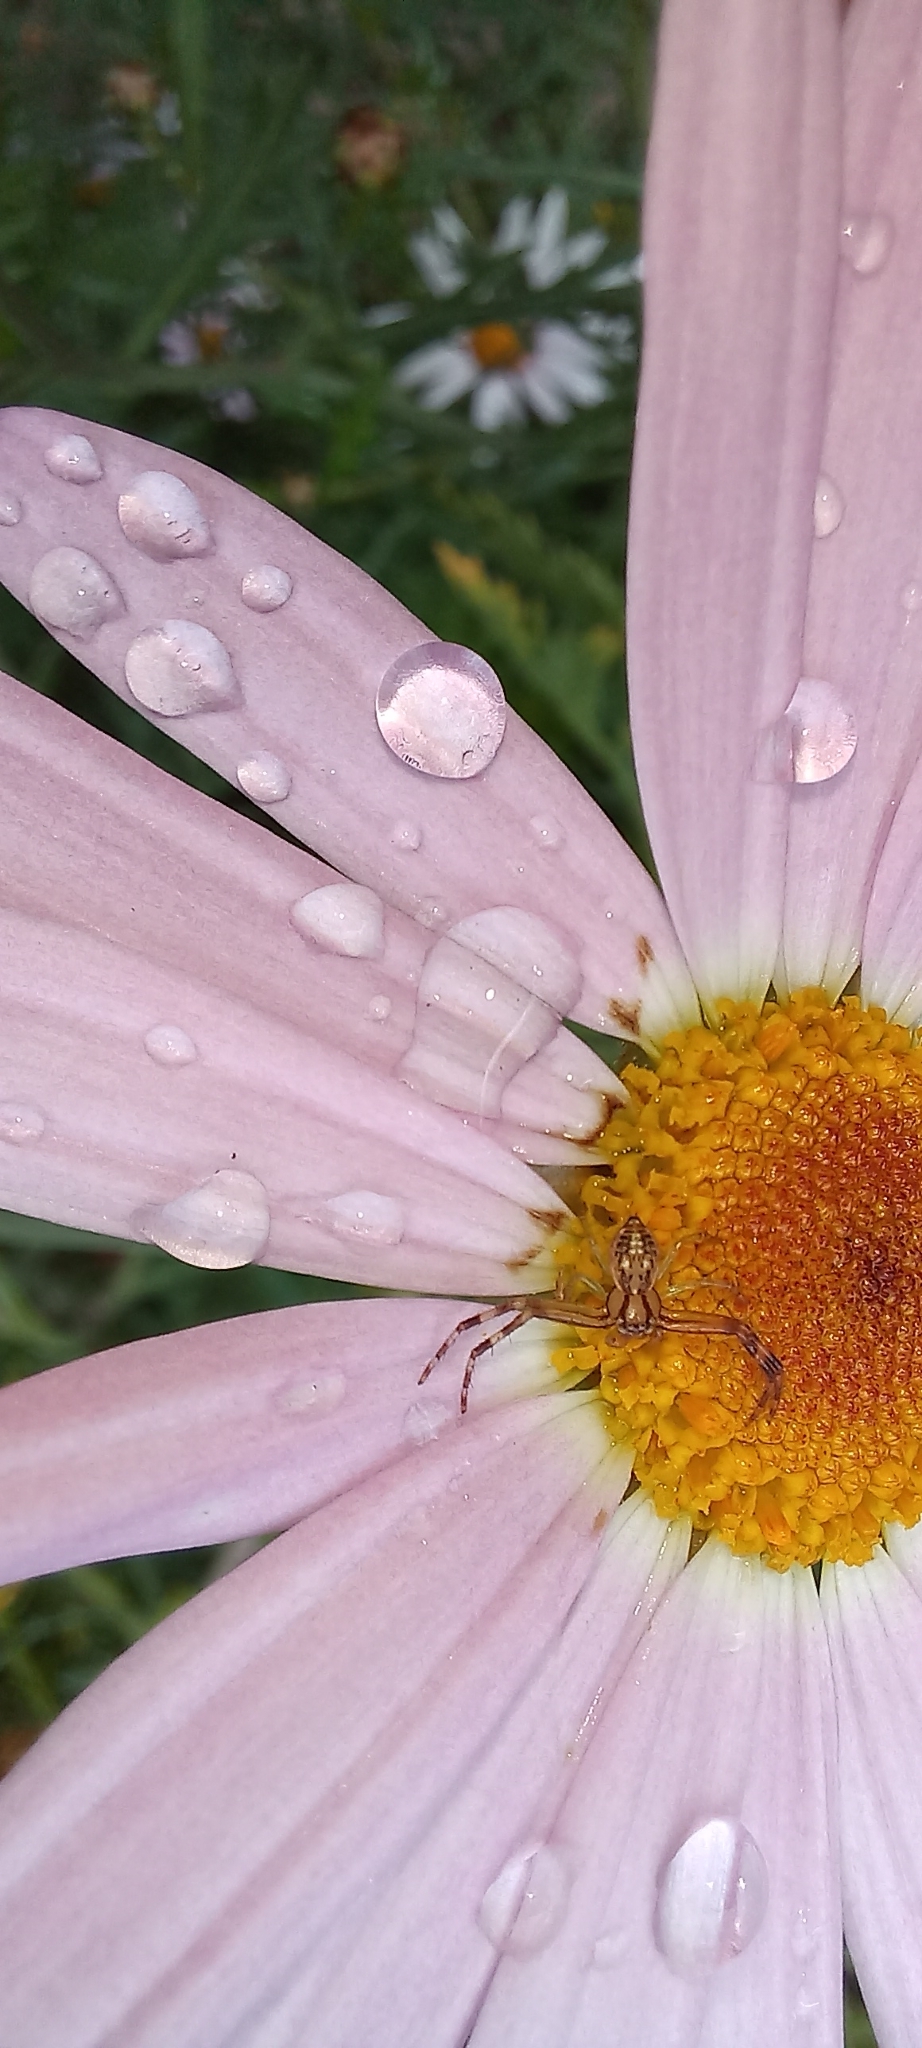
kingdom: Animalia
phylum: Arthropoda
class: Arachnida
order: Araneae
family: Thomisidae
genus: Diaea
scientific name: Diaea ambara
